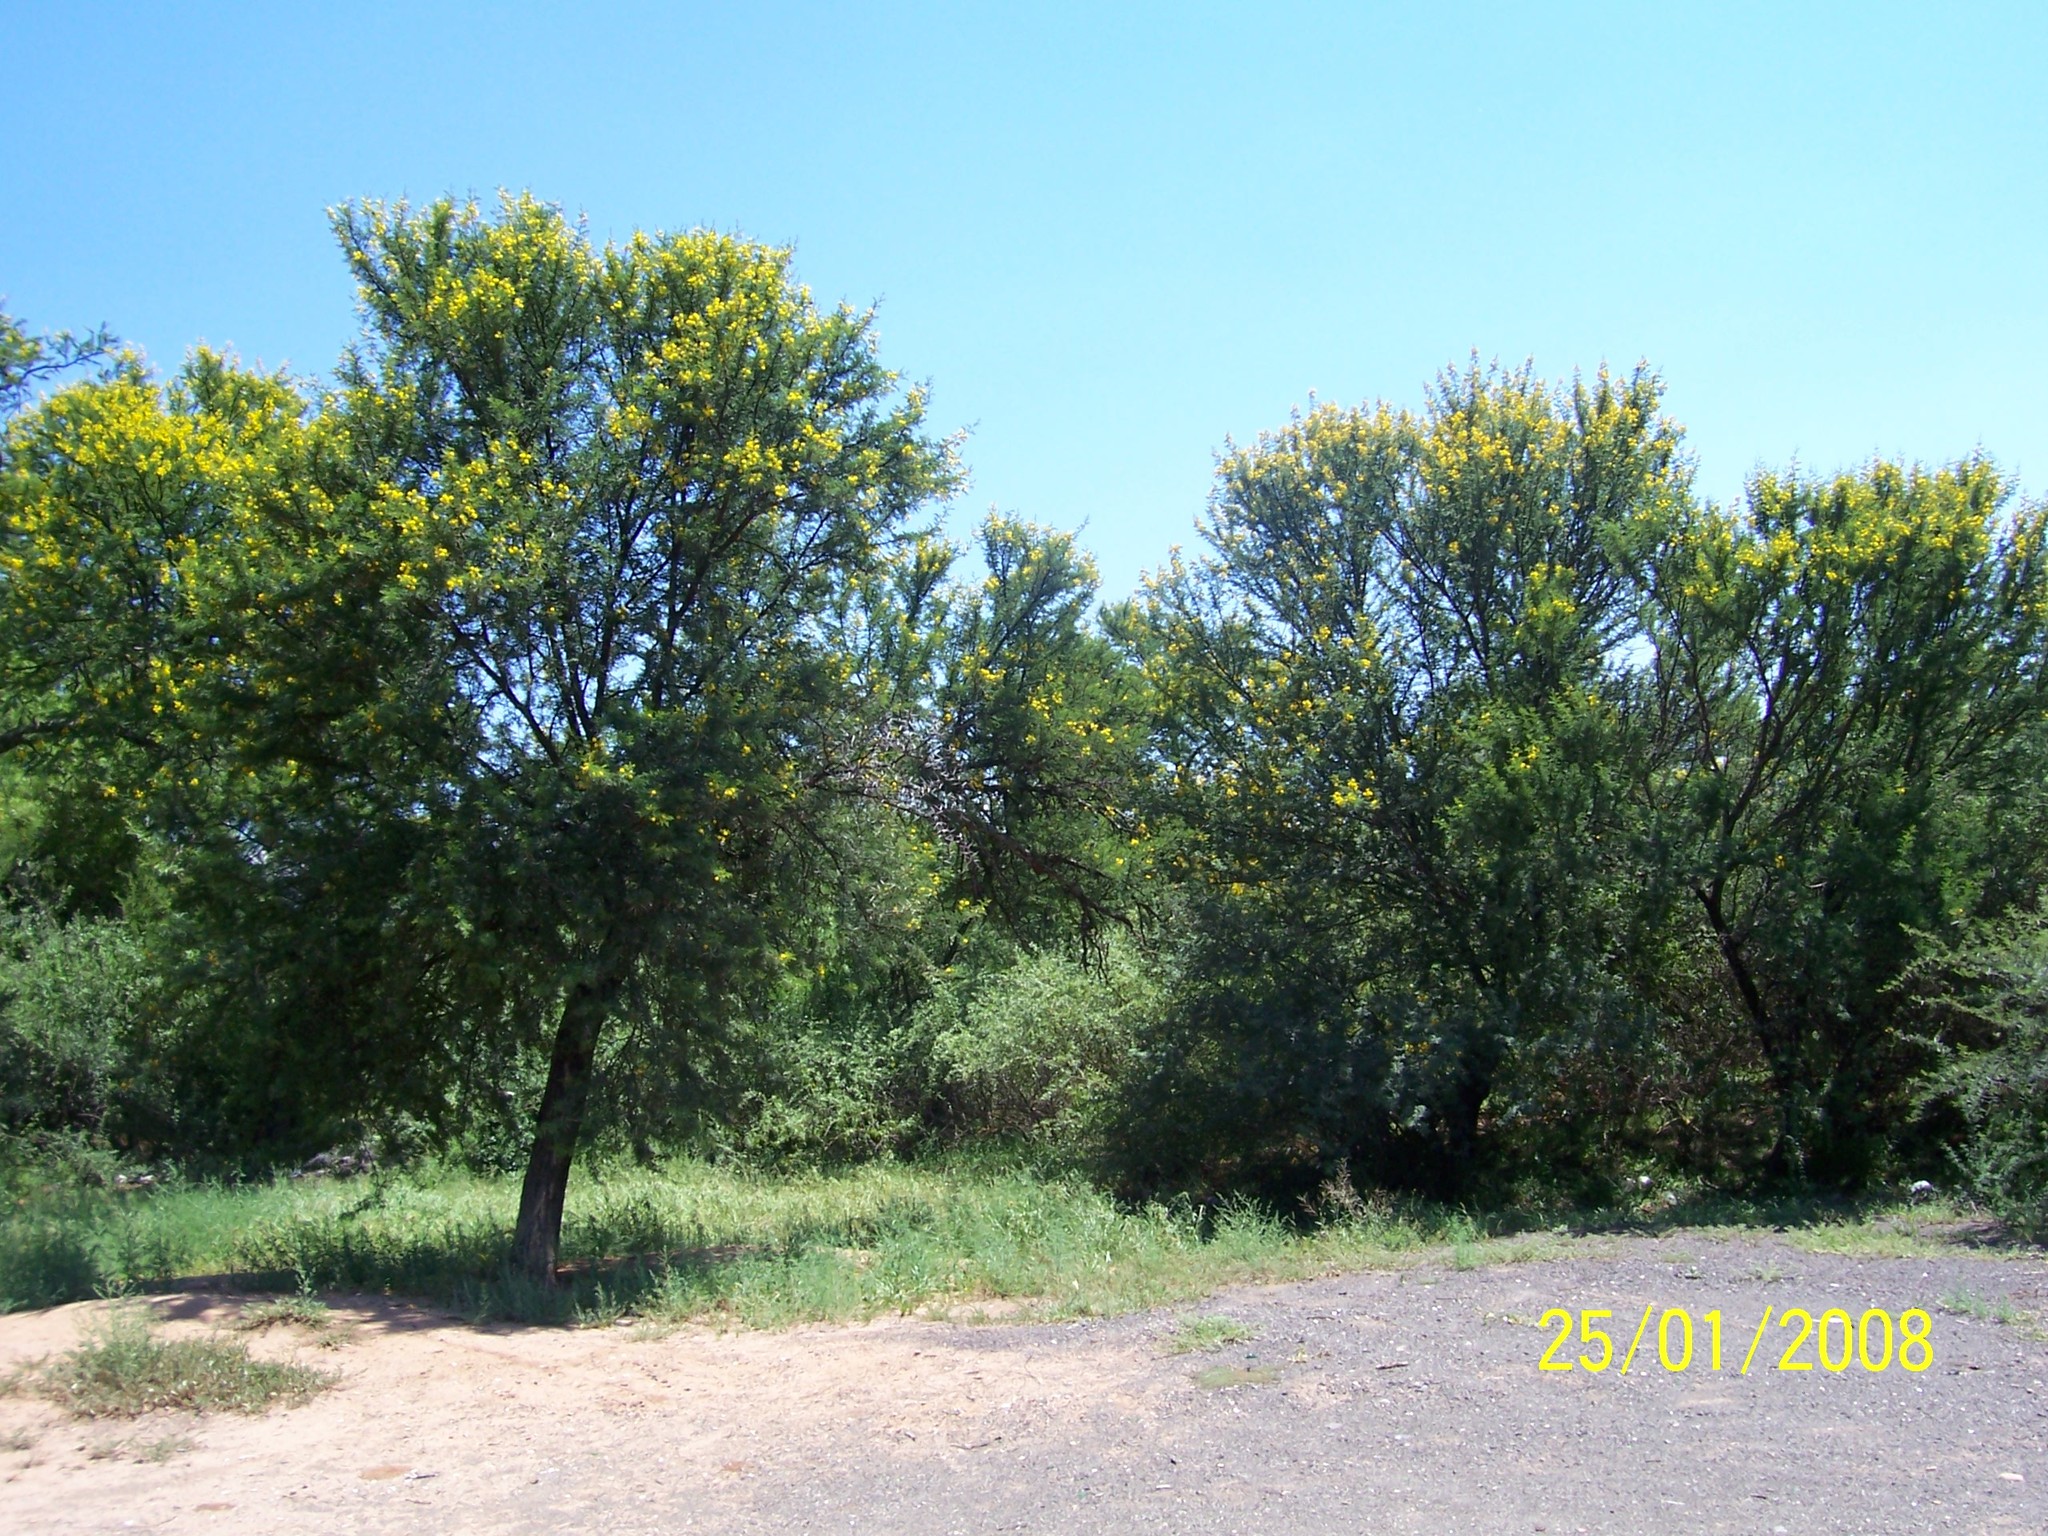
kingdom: Plantae
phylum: Tracheophyta
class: Magnoliopsida
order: Fabales
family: Fabaceae
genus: Vachellia
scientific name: Vachellia karroo
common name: Sweet thorn
